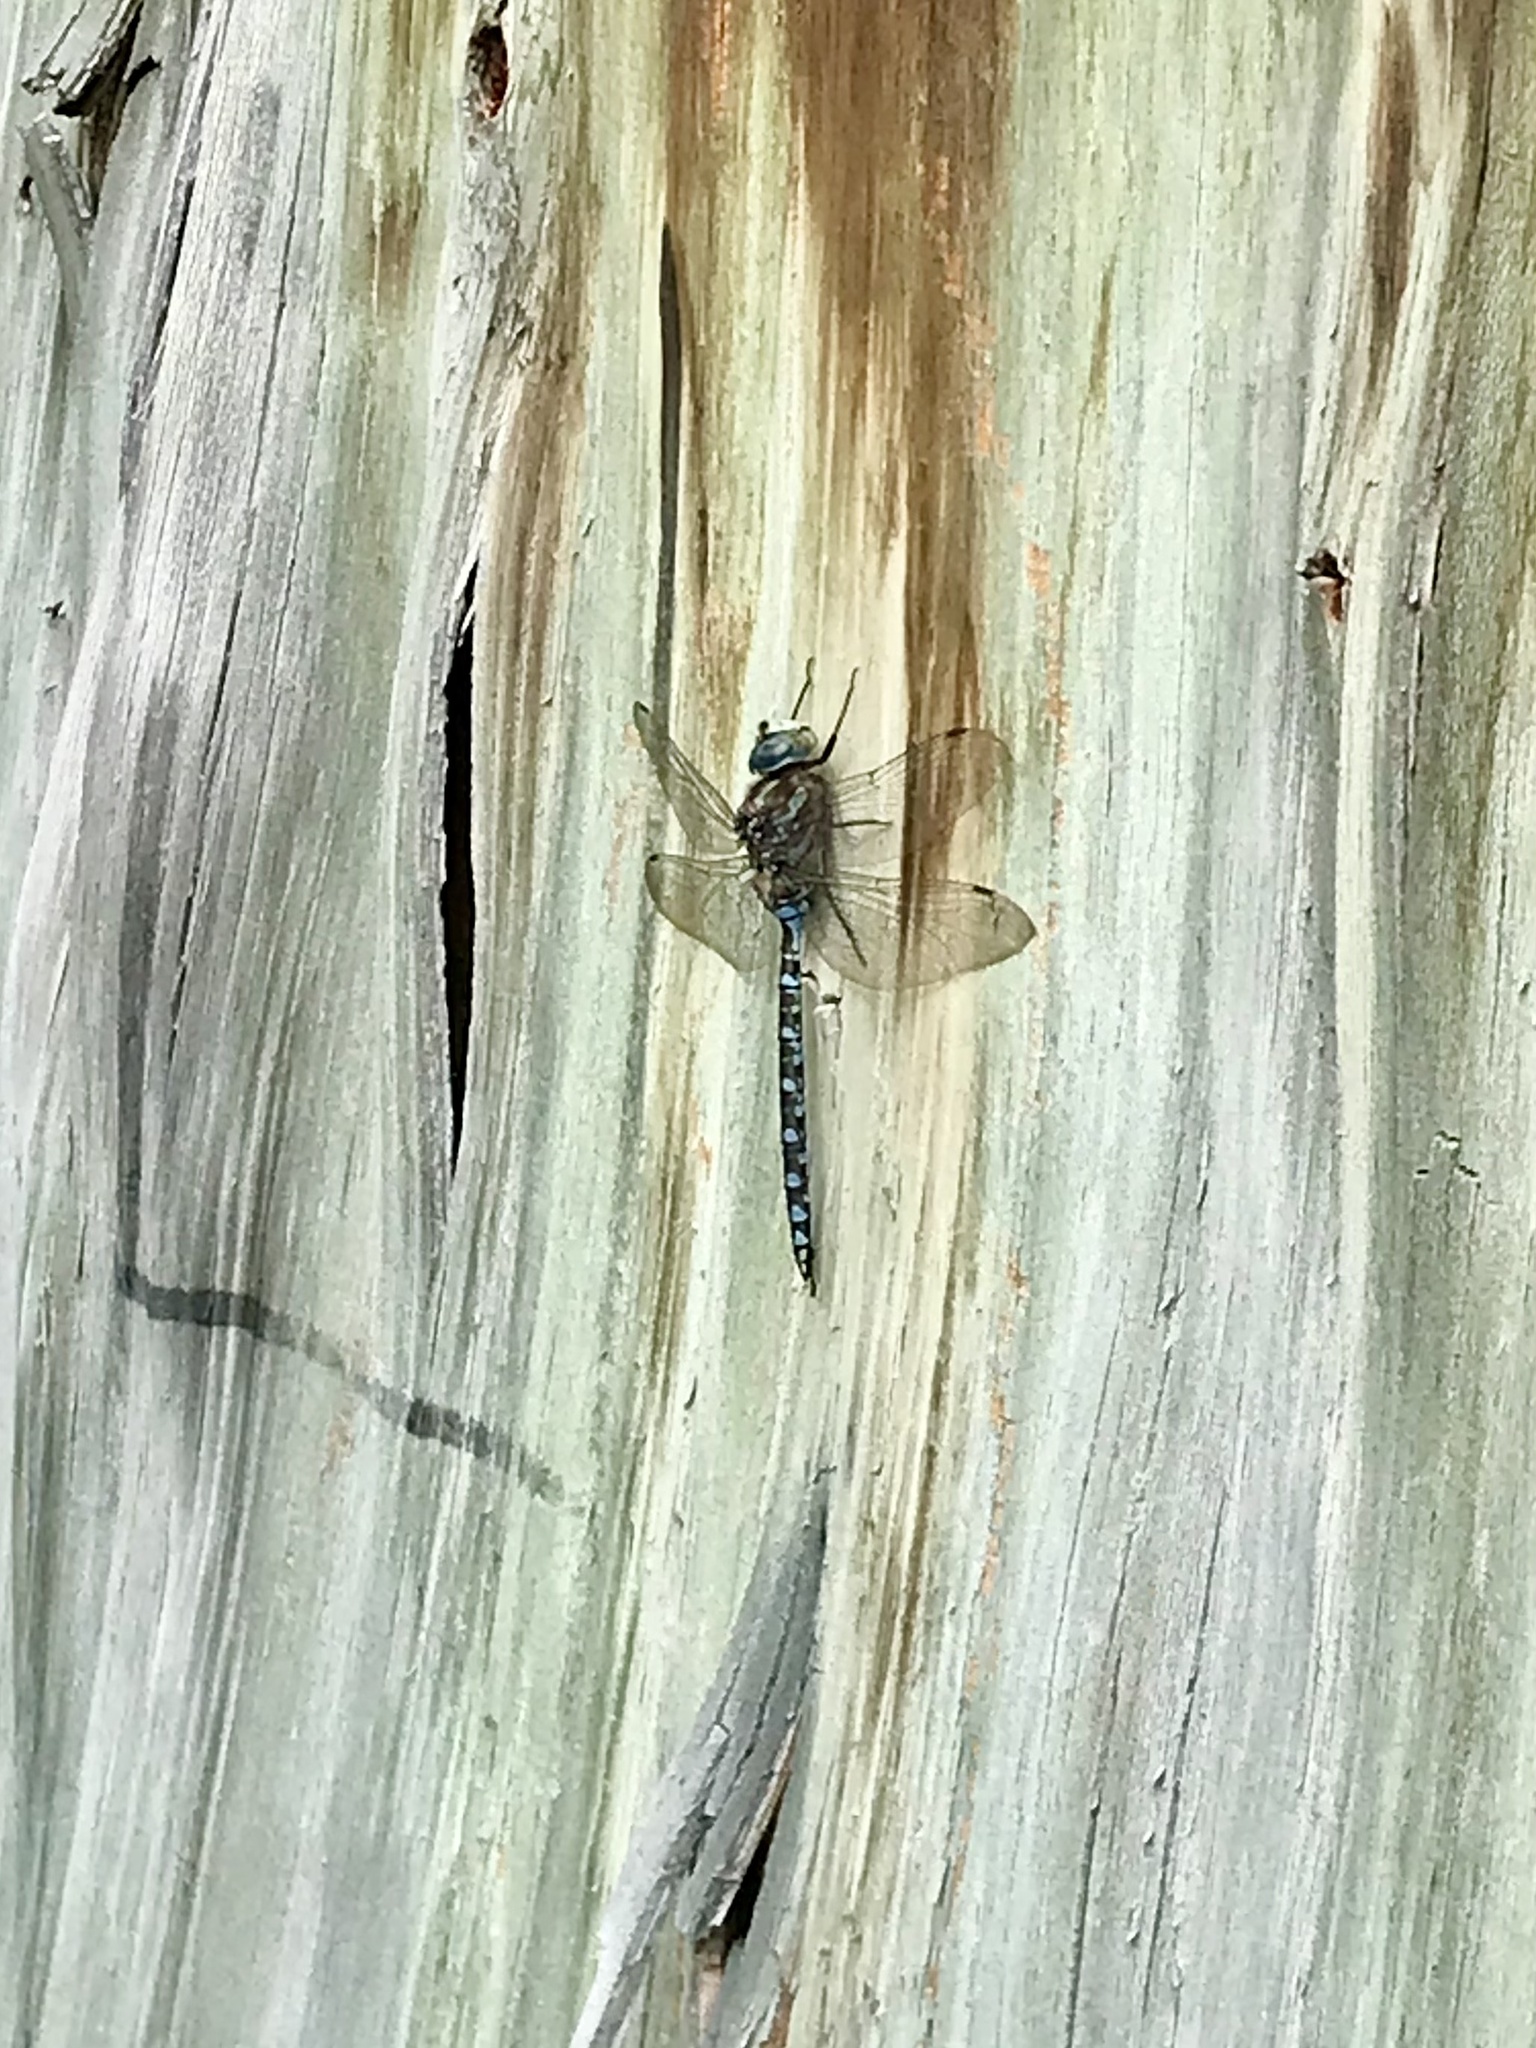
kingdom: Animalia
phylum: Arthropoda
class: Insecta
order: Odonata
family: Aeshnidae
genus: Aeshna
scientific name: Aeshna canadensis
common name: Canada darner
